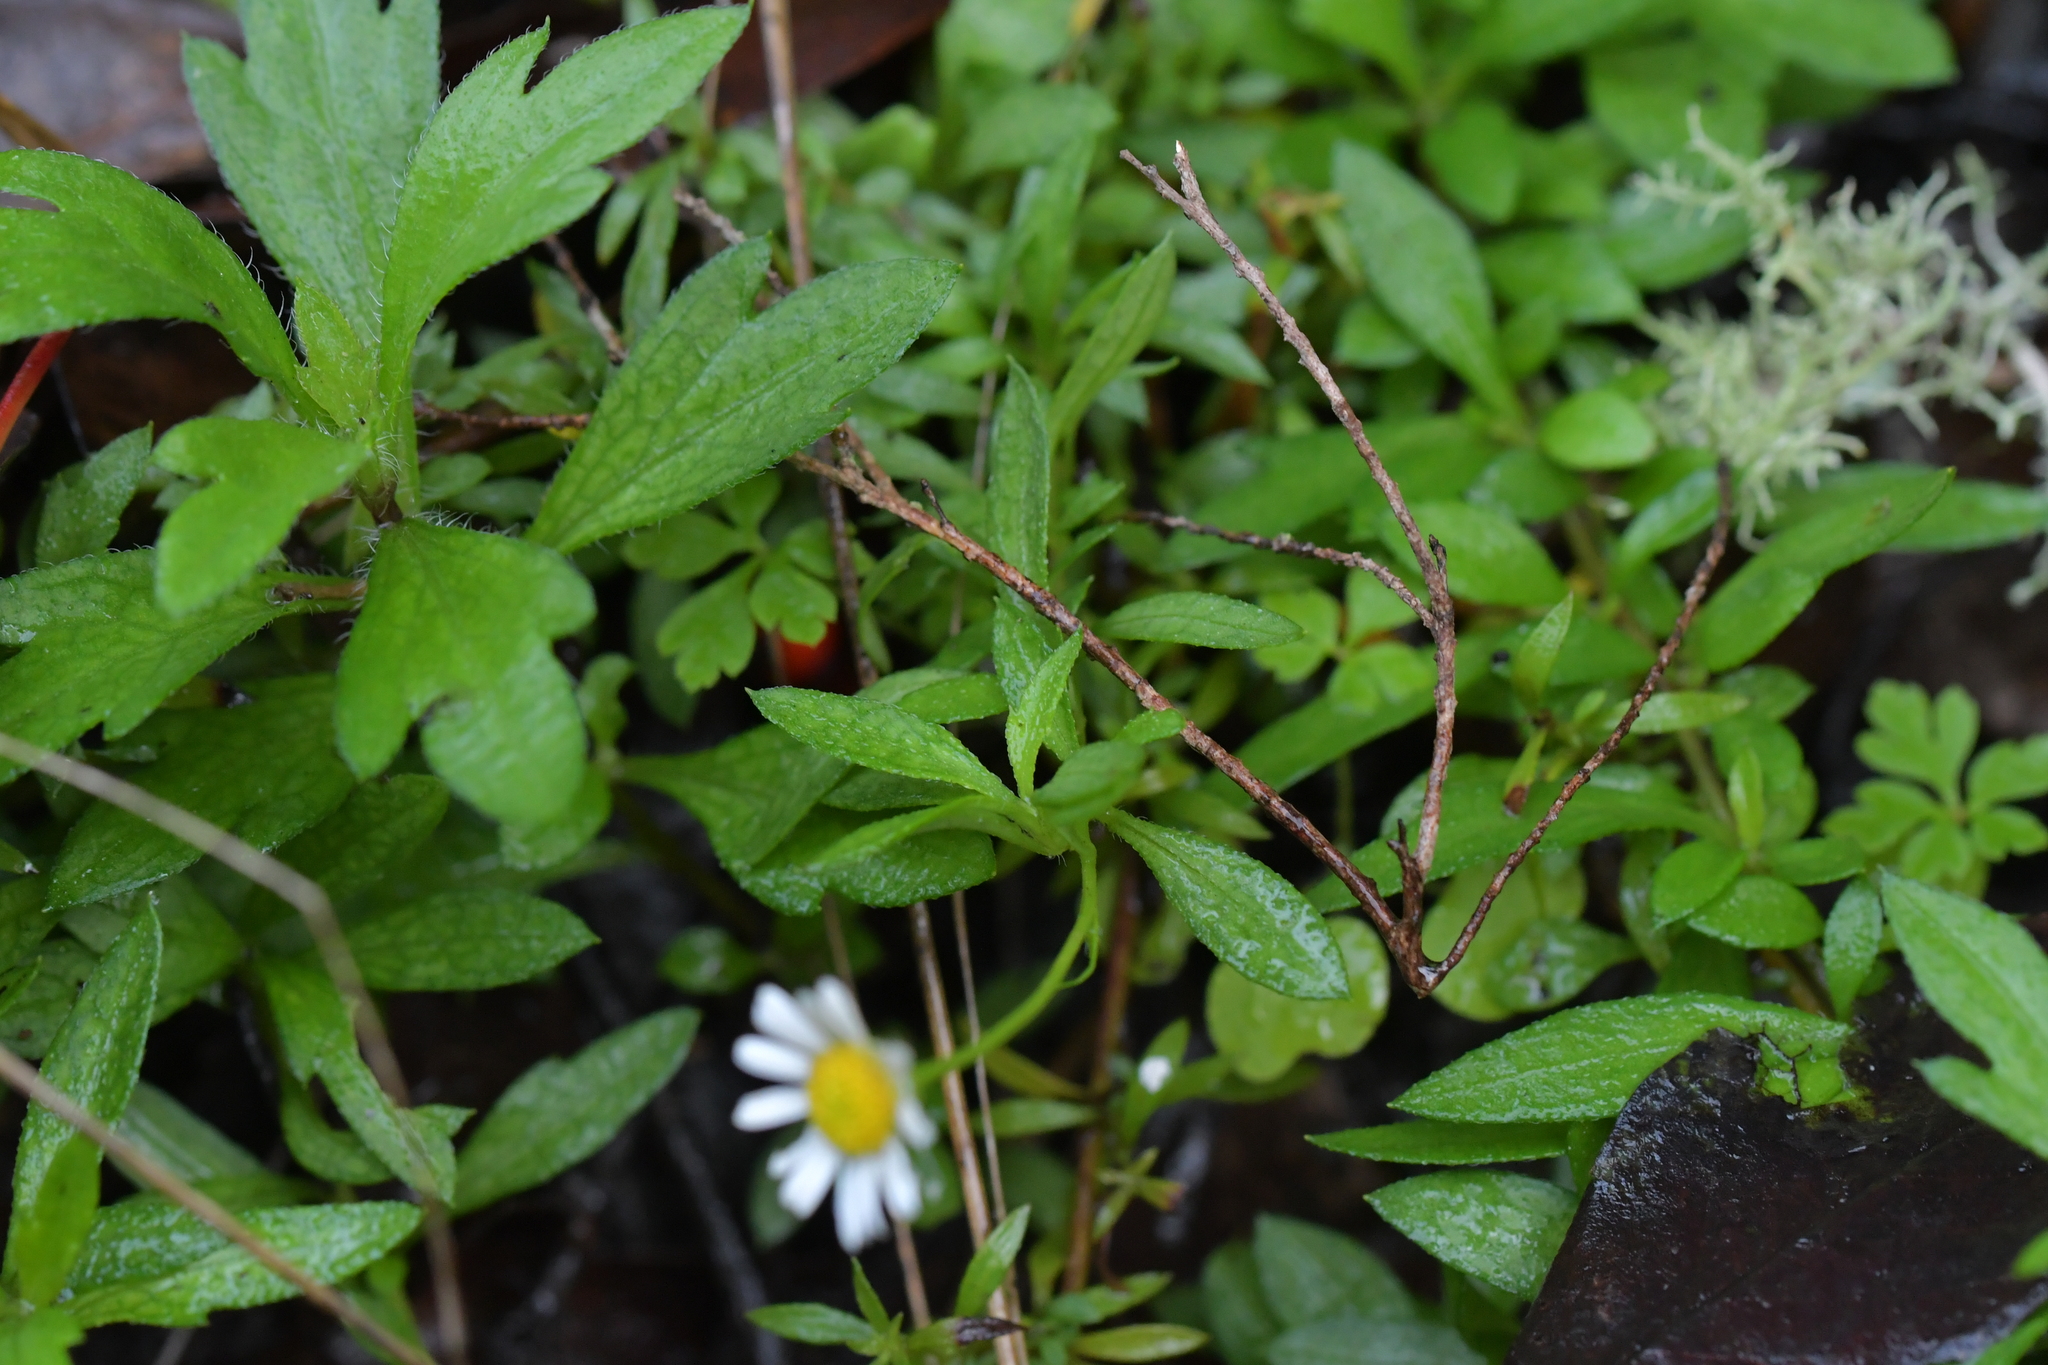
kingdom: Plantae
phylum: Tracheophyta
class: Magnoliopsida
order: Asterales
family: Asteraceae
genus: Erigeron
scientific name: Erigeron karvinskianus
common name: Mexican fleabane
